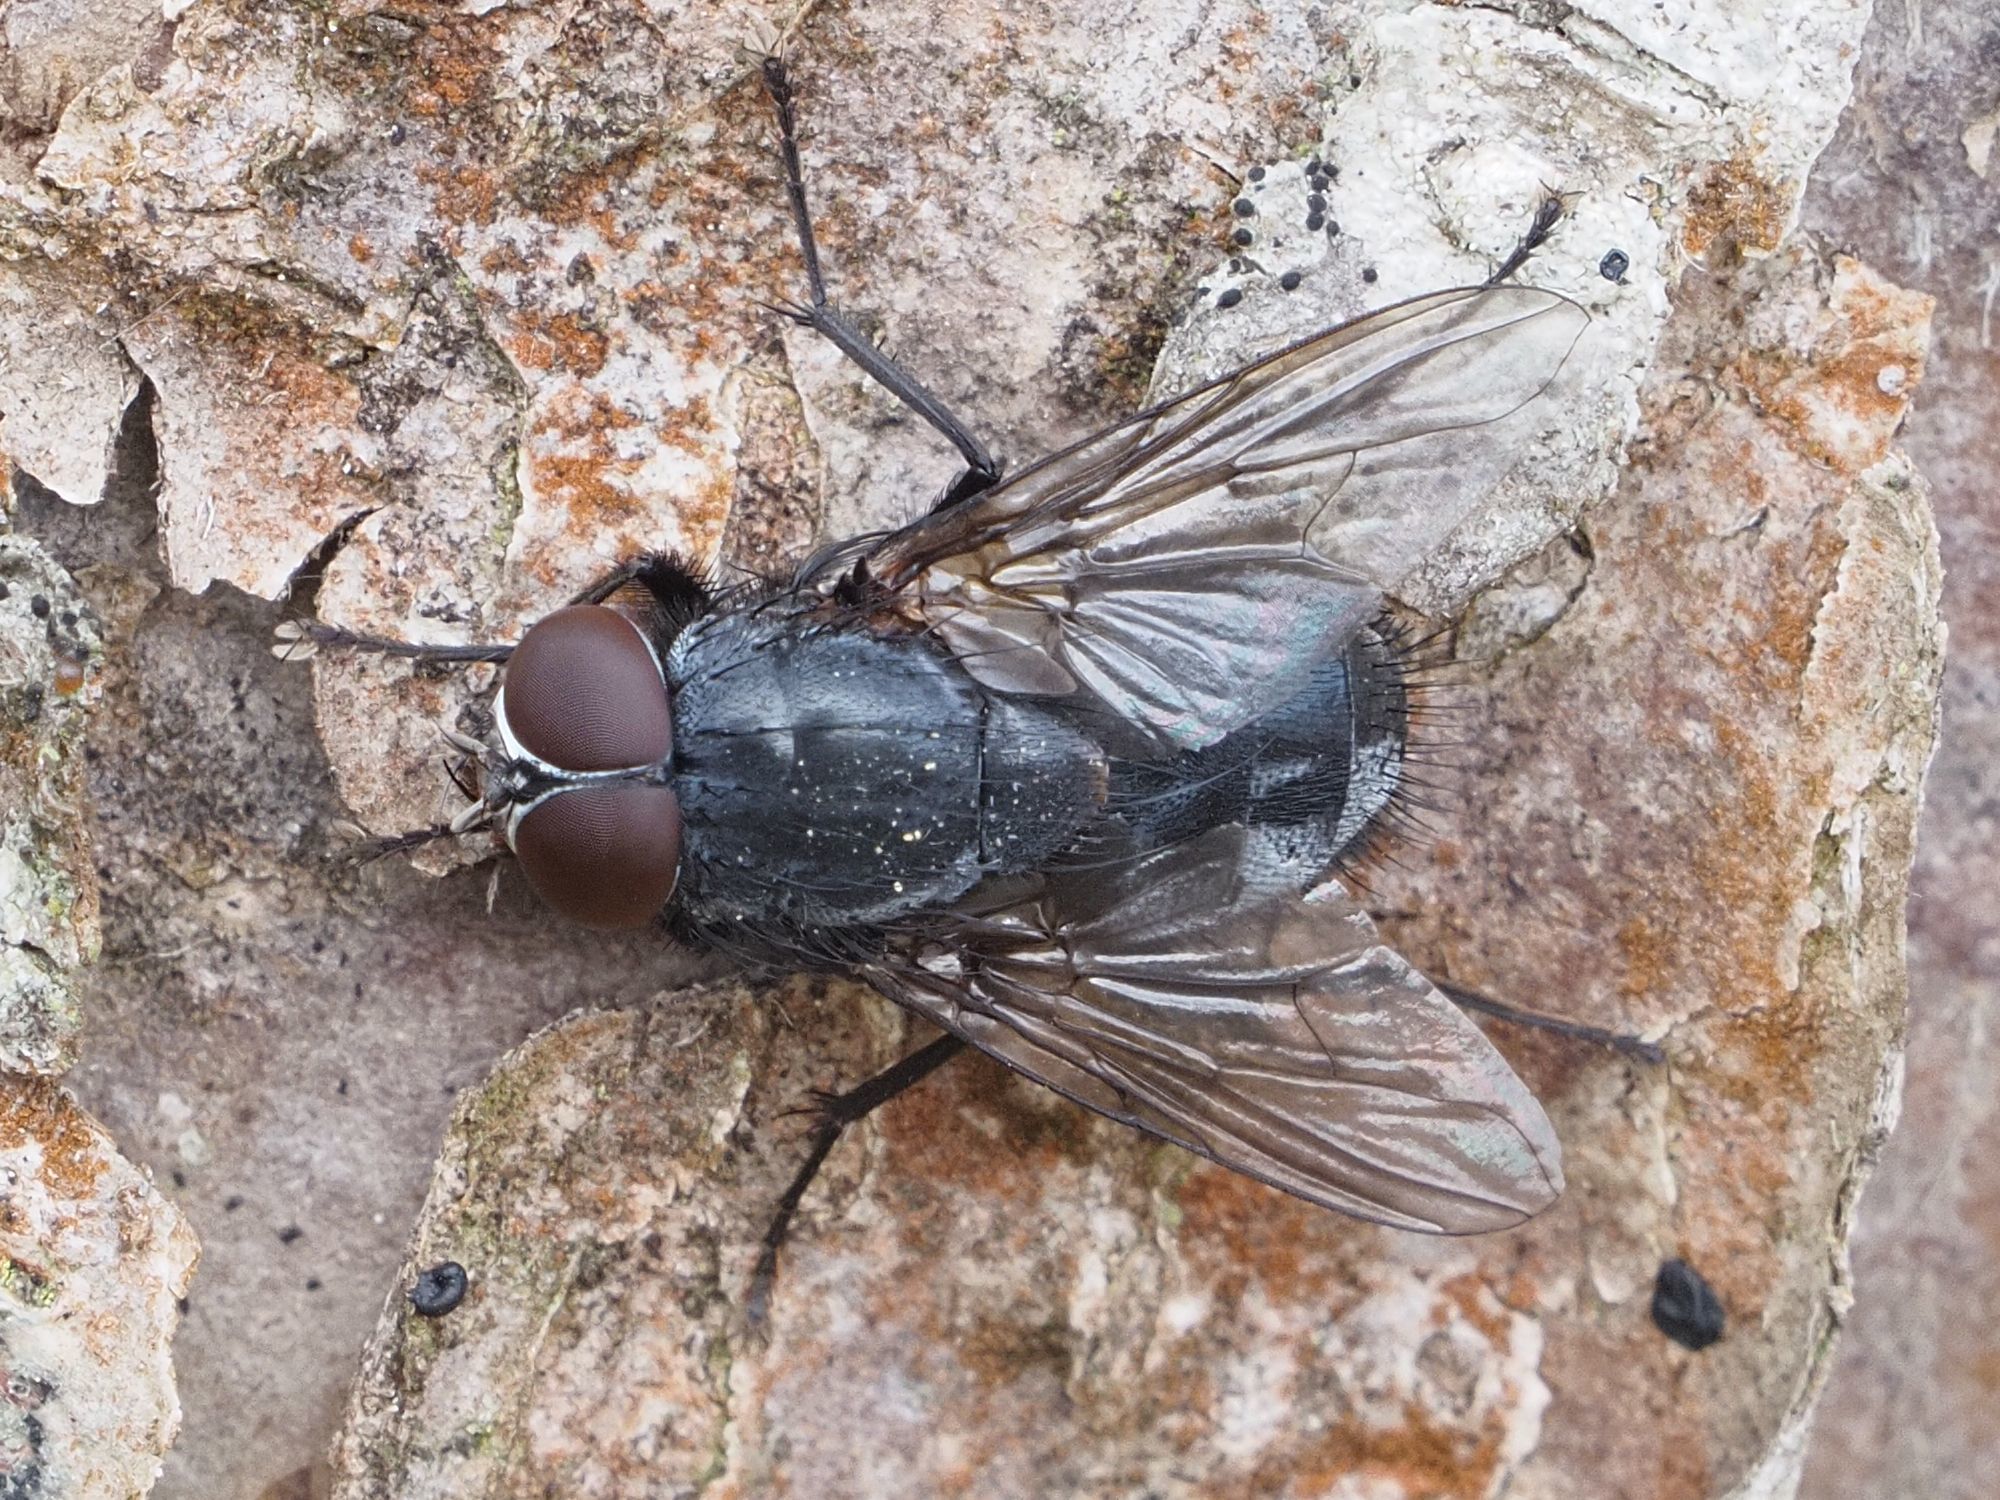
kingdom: Animalia
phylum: Arthropoda
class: Insecta
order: Diptera
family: Muscidae
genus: Muscina
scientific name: Muscina pascuorum
